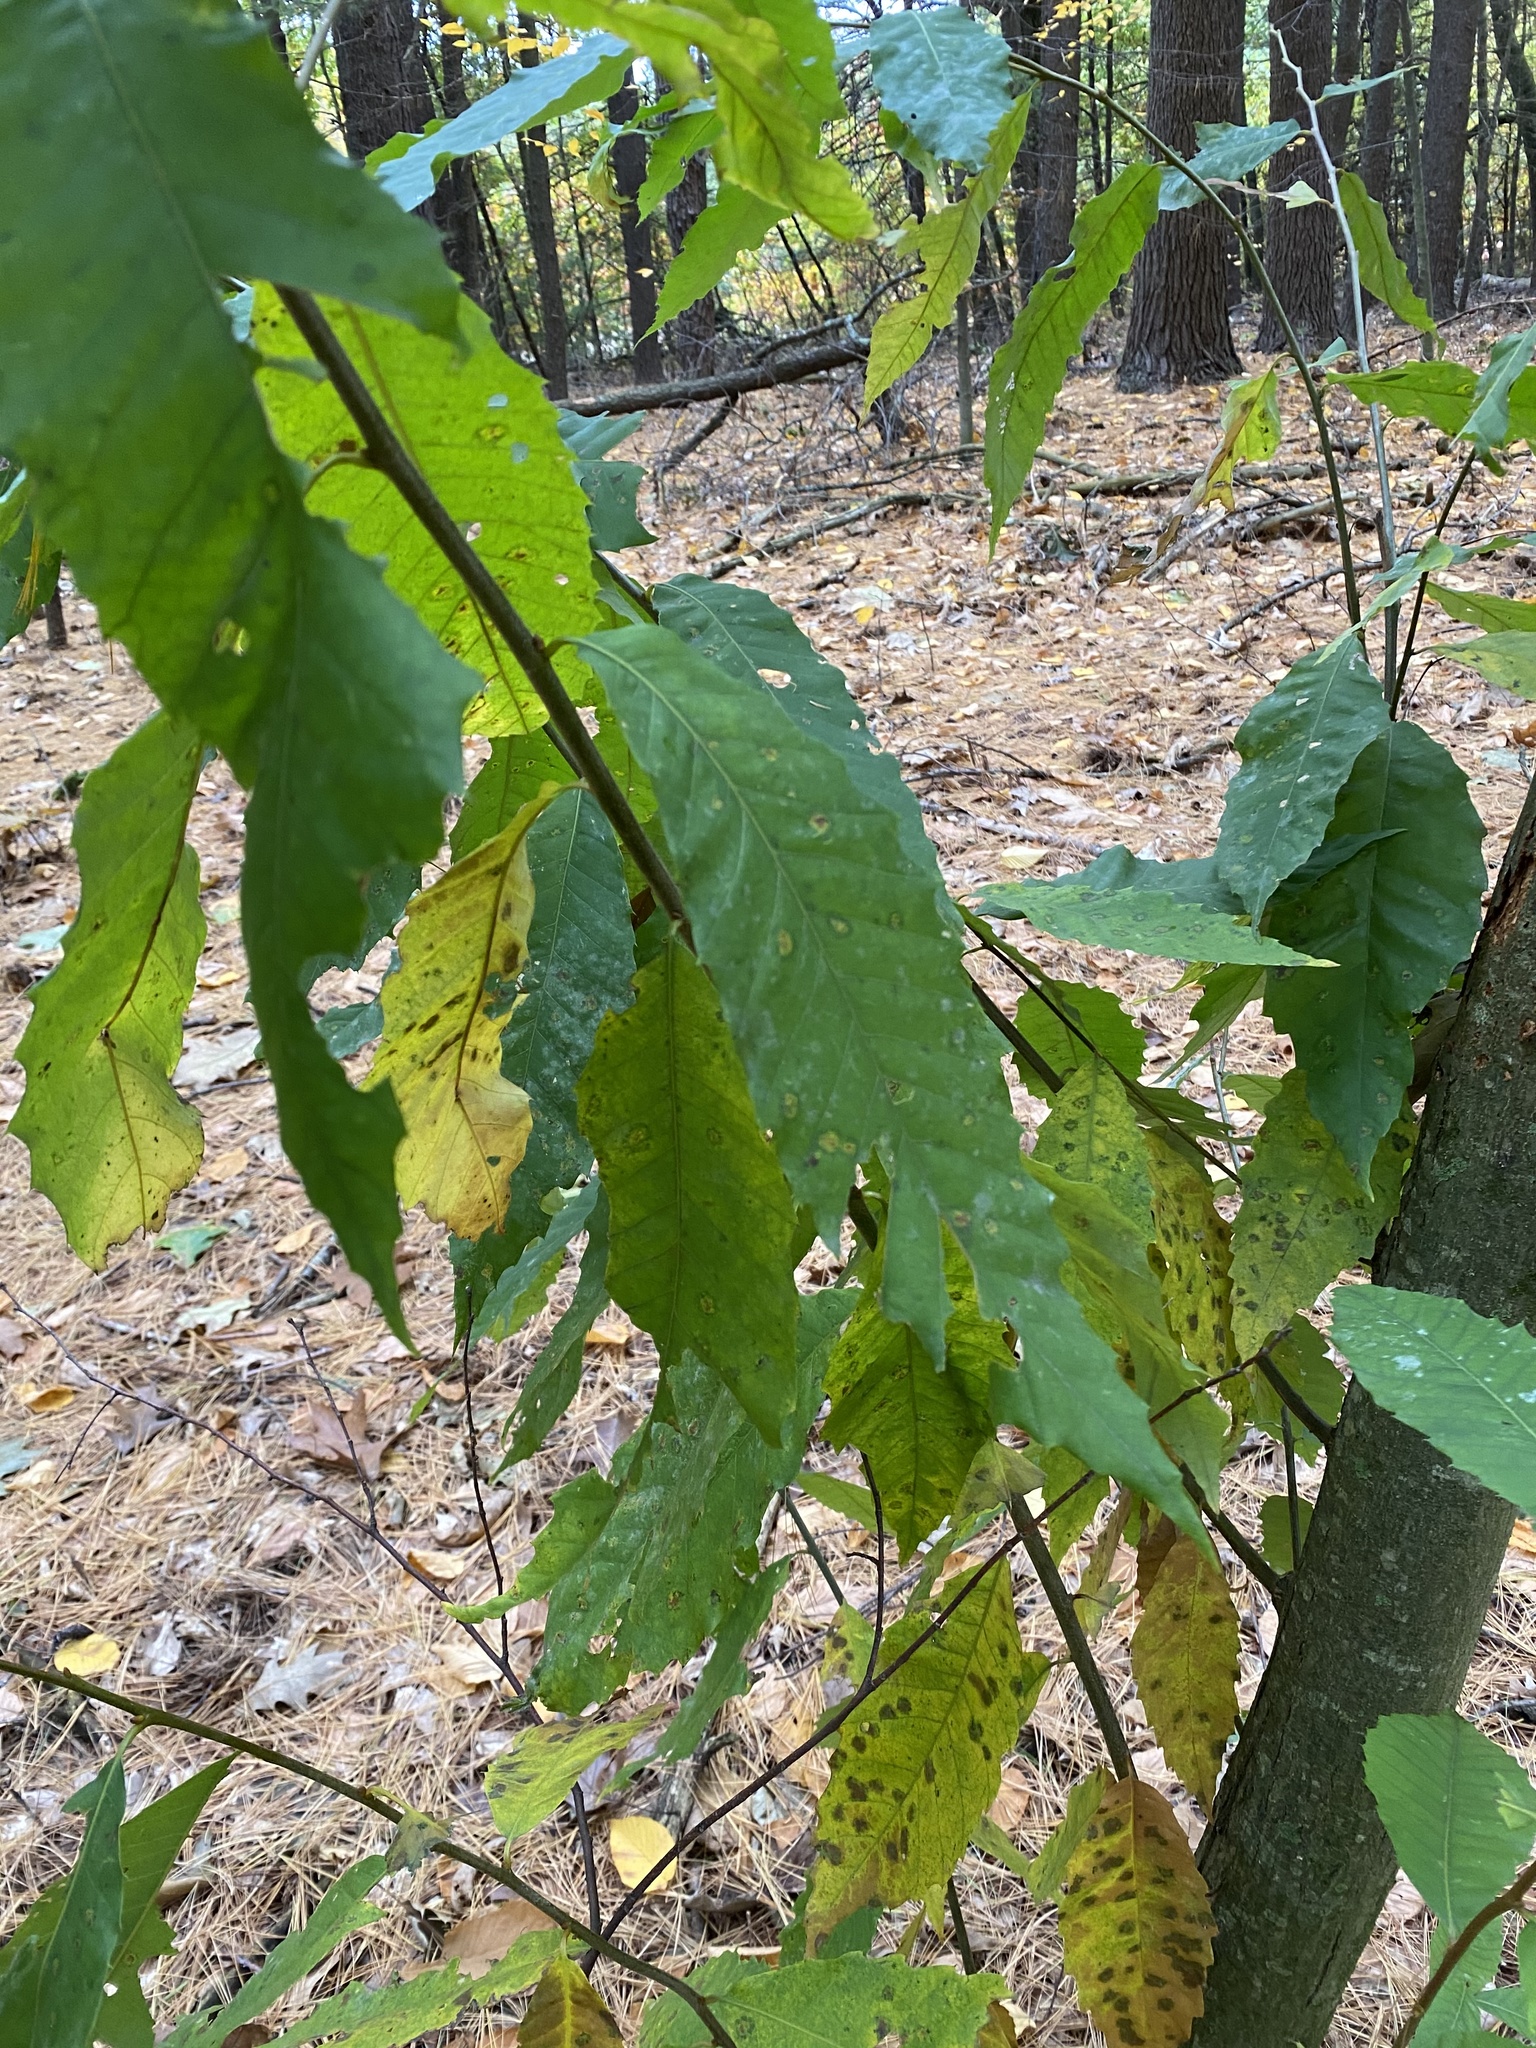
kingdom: Plantae
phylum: Tracheophyta
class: Magnoliopsida
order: Fagales
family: Fagaceae
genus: Castanea
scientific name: Castanea dentata
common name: American chestnut
